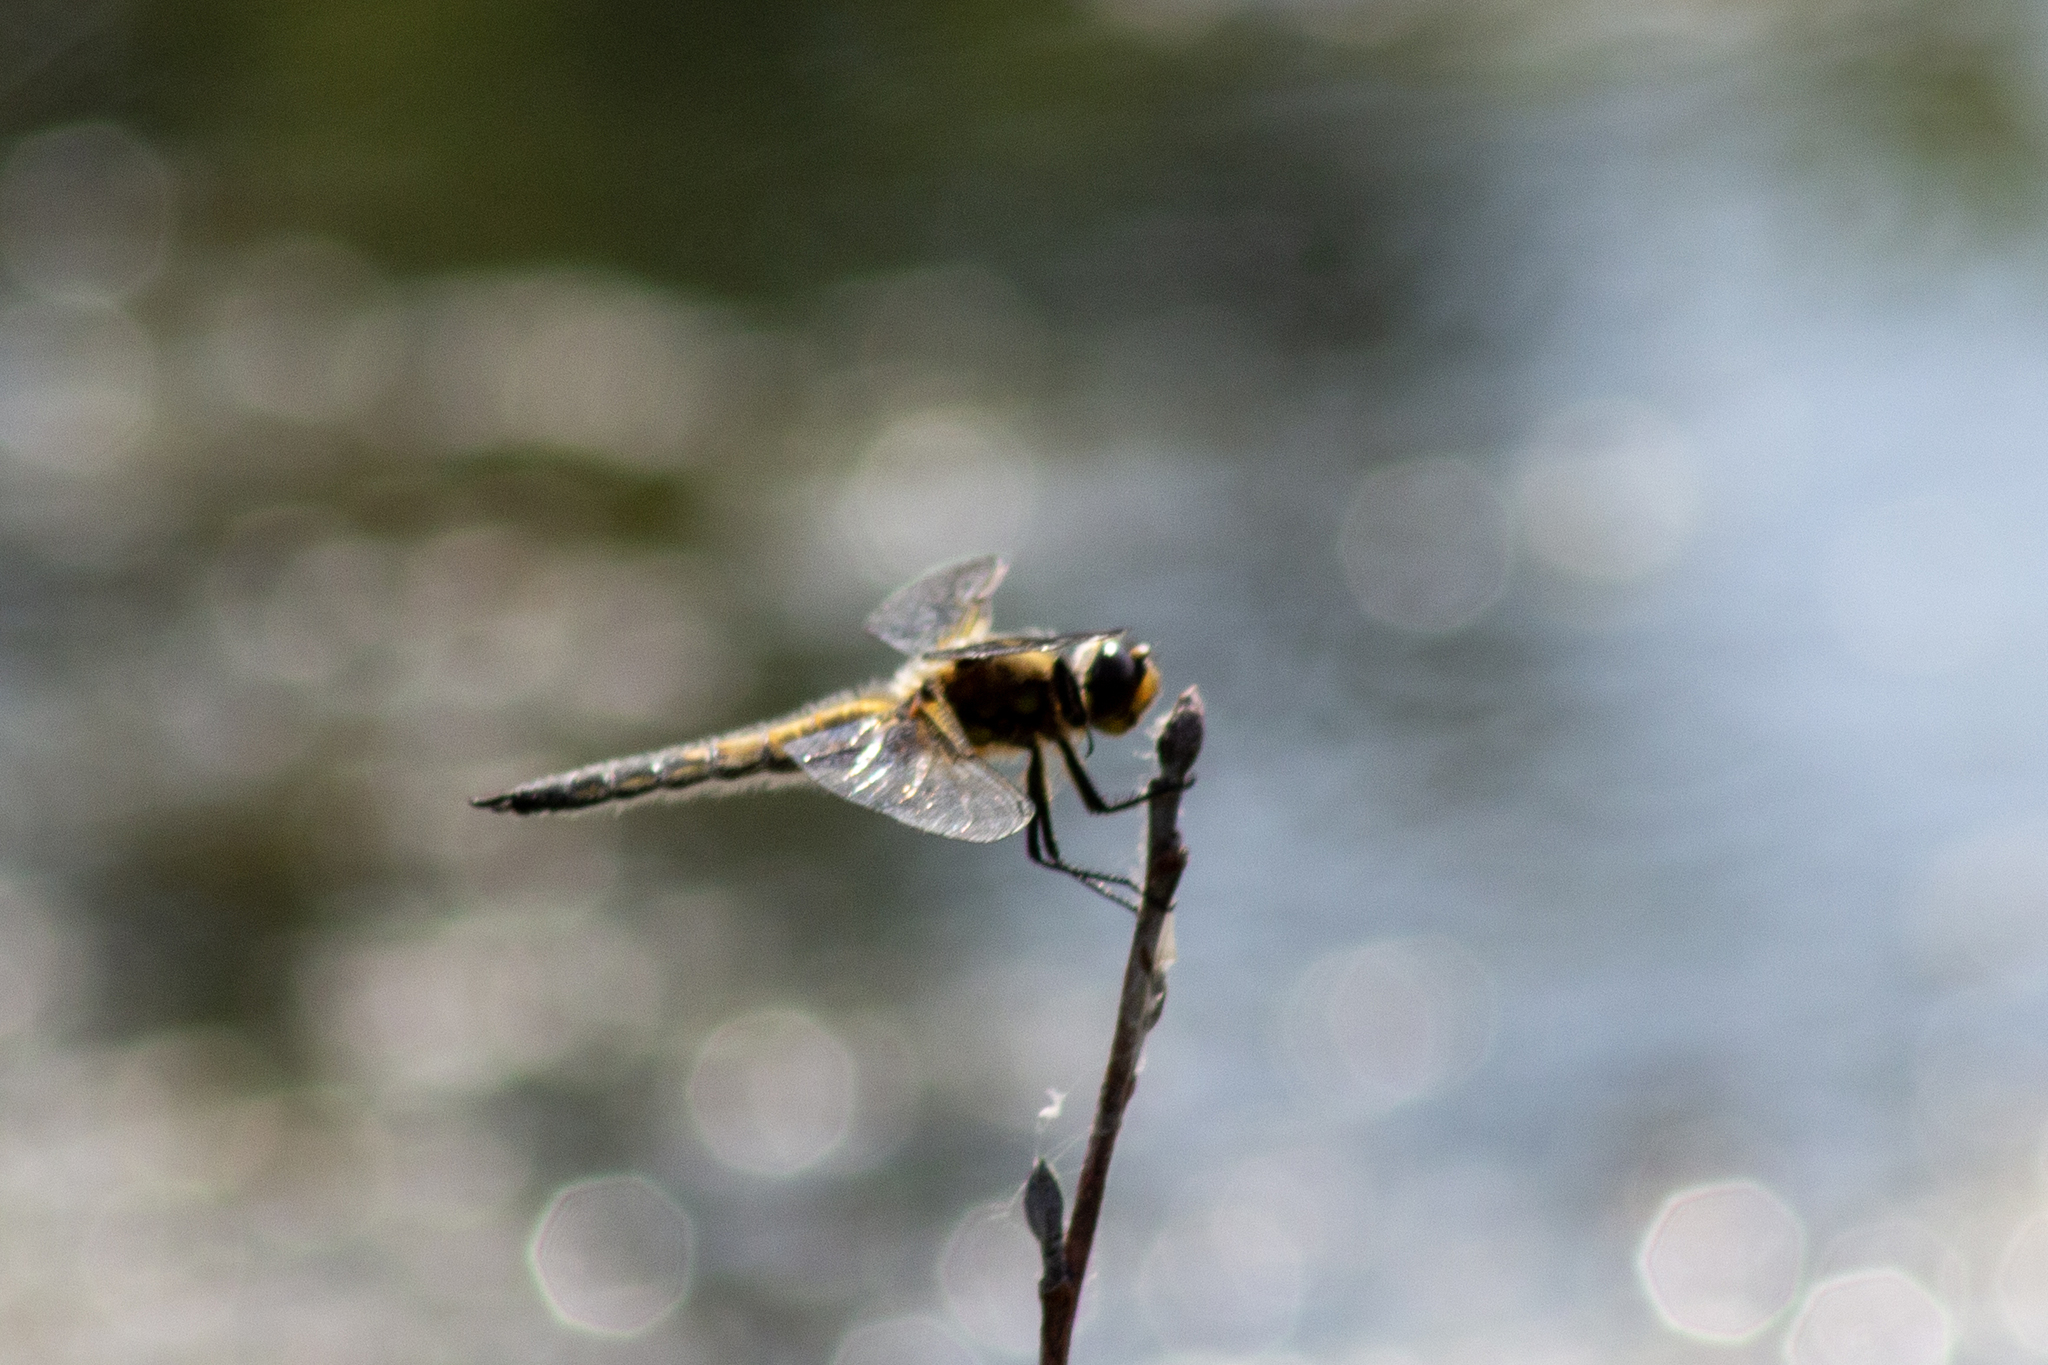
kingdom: Animalia
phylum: Arthropoda
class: Insecta
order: Odonata
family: Libellulidae
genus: Libellula
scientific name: Libellula quadrimaculata
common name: Four-spotted chaser
